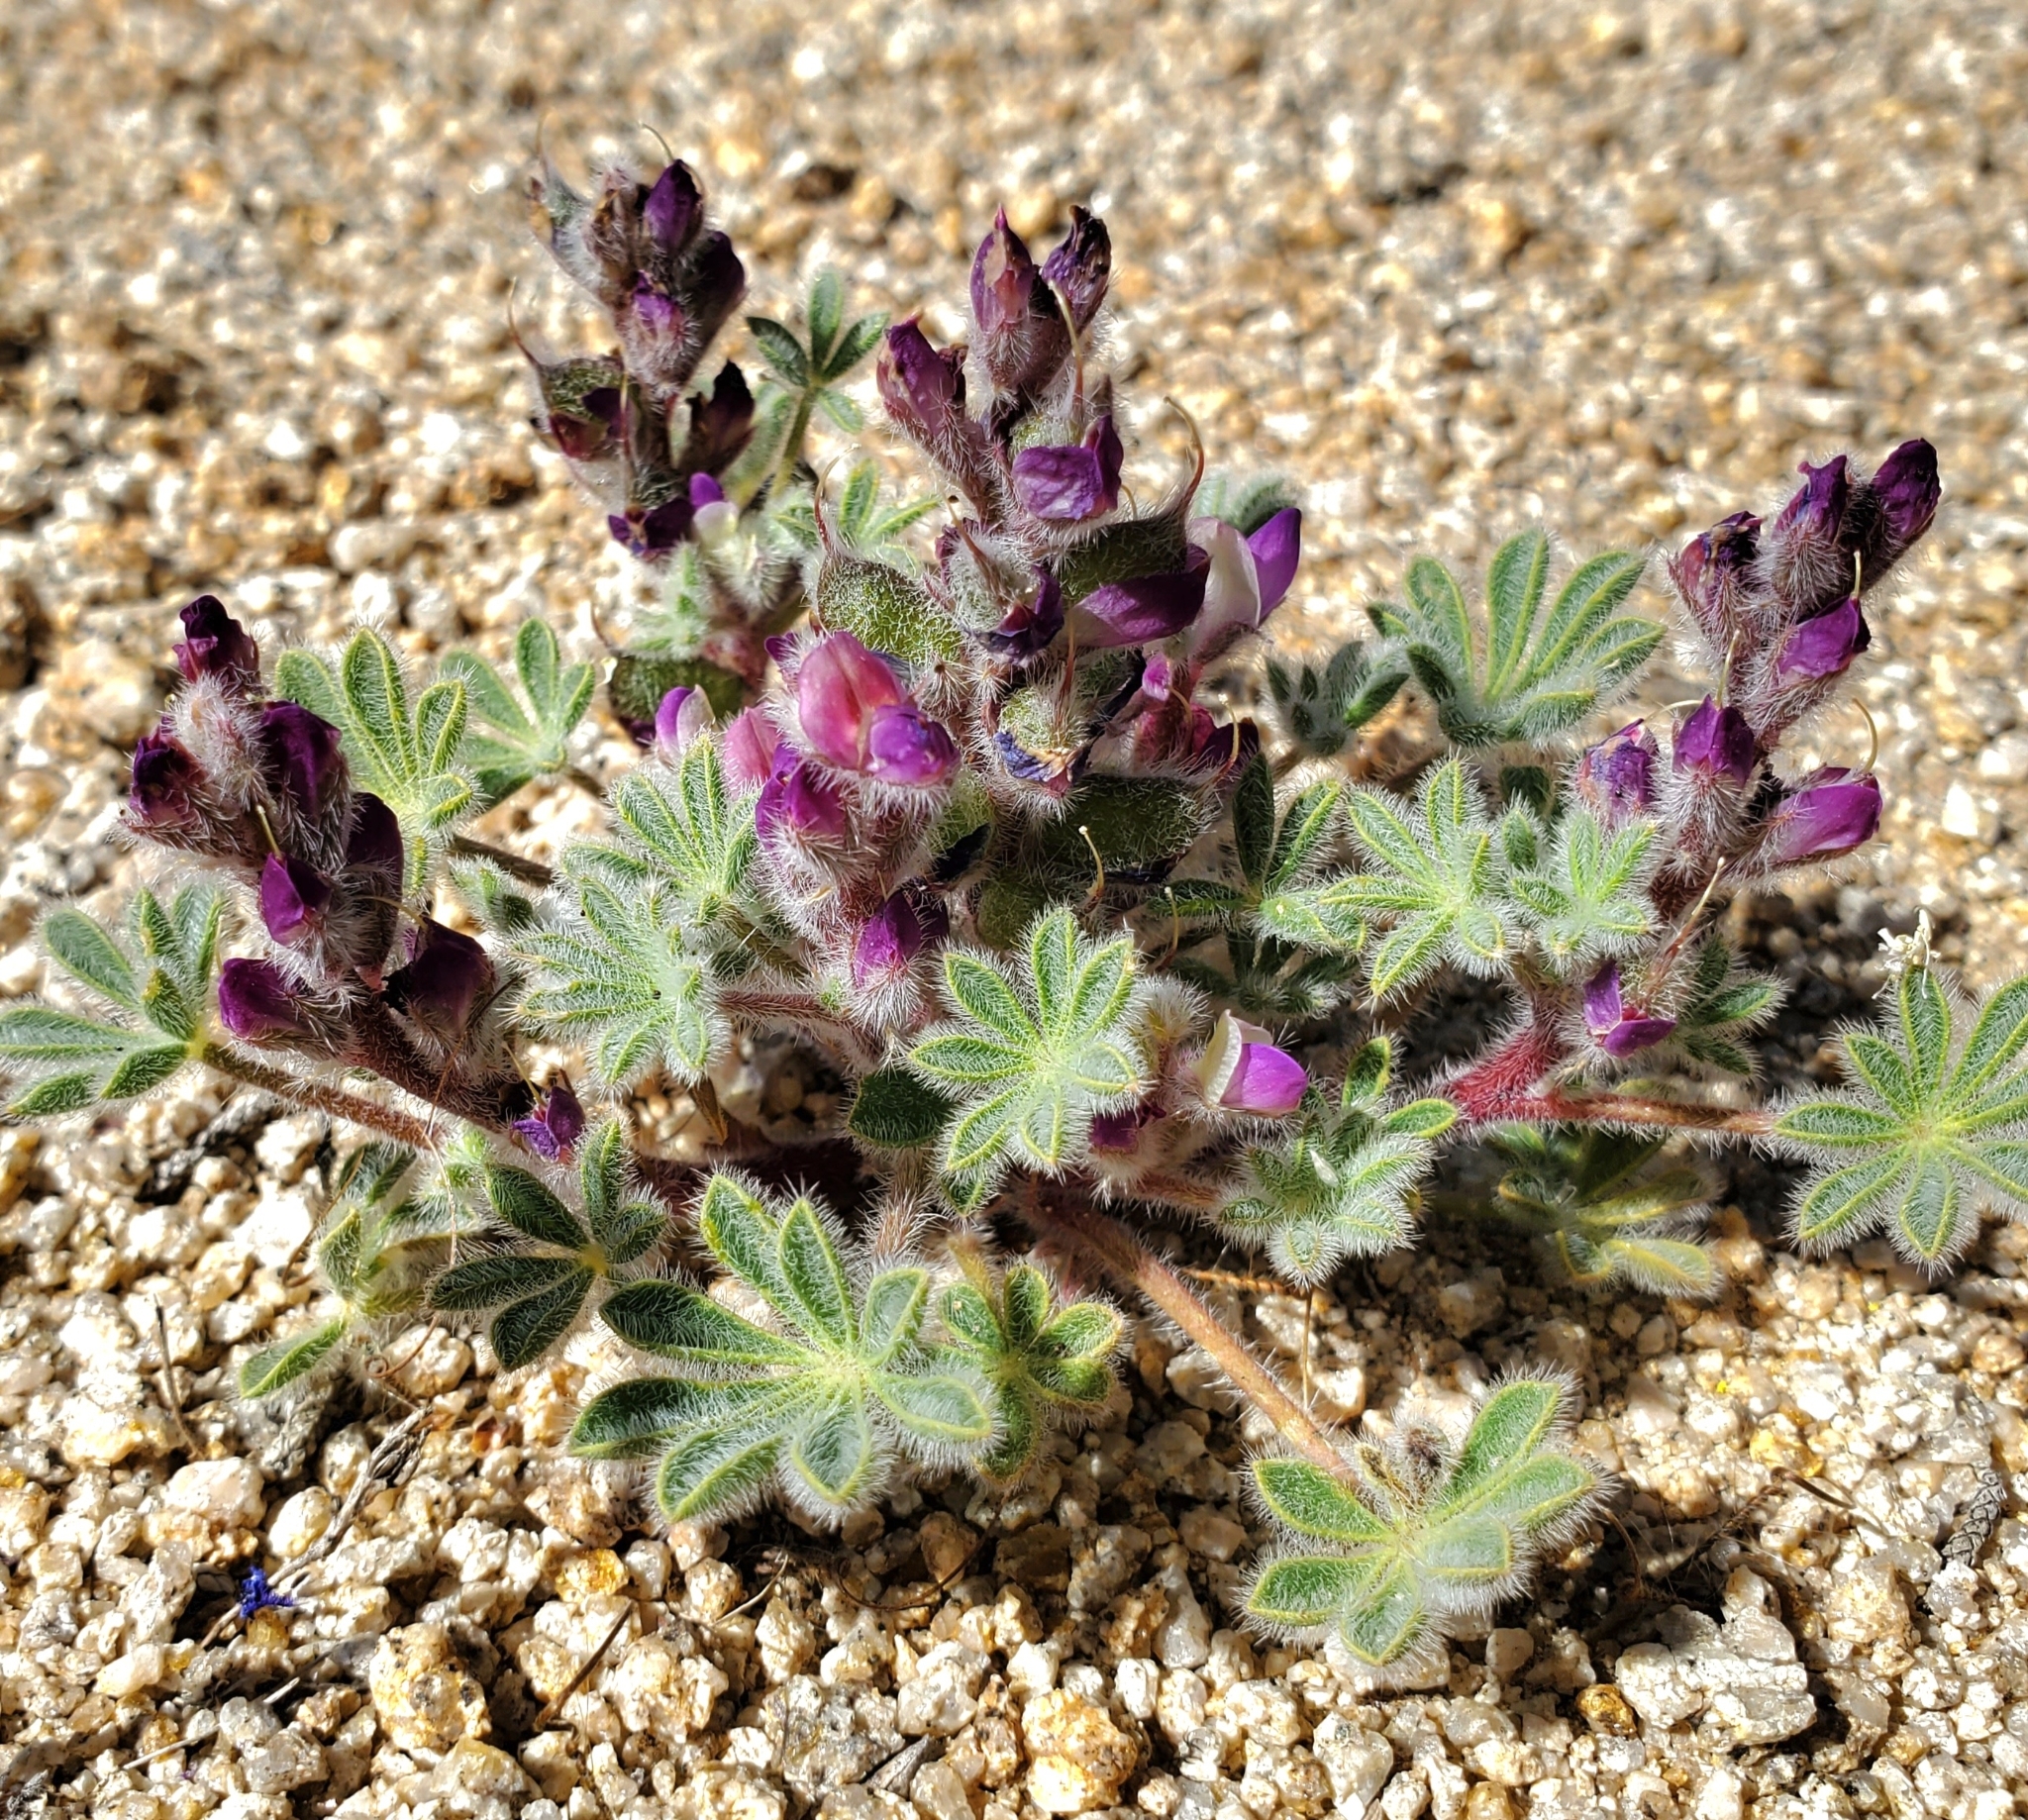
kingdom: Plantae
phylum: Tracheophyta
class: Magnoliopsida
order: Fabales
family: Fabaceae
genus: Lupinus
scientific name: Lupinus concinnus
